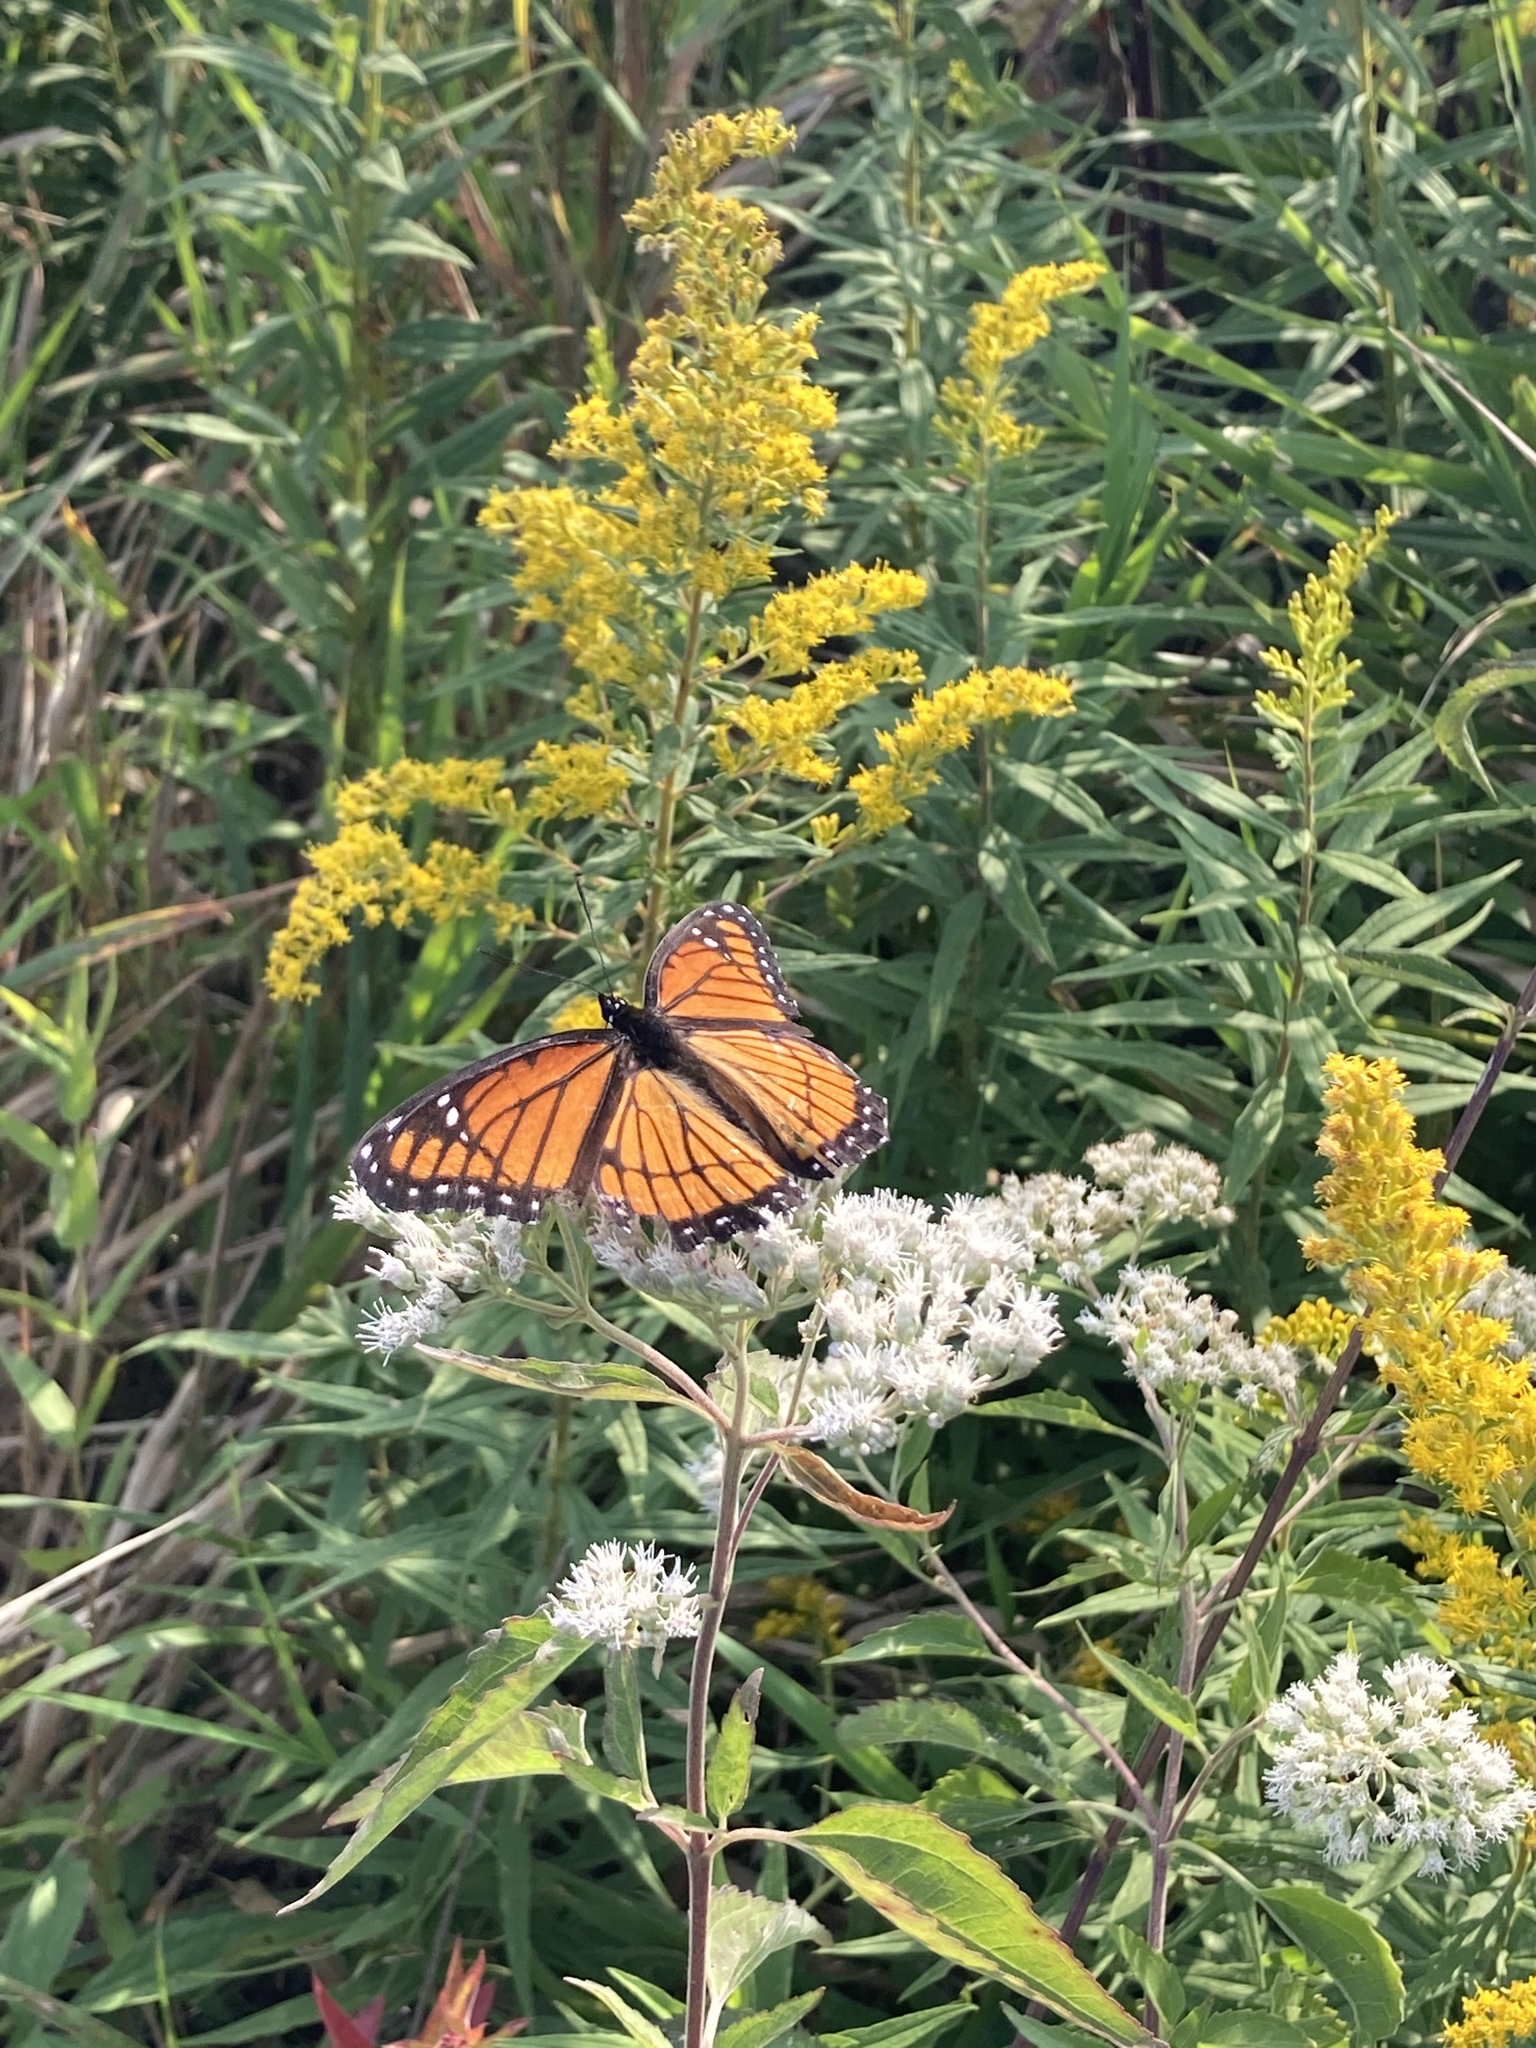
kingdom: Animalia
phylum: Arthropoda
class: Insecta
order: Lepidoptera
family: Nymphalidae
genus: Limenitis
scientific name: Limenitis archippus
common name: Viceroy
